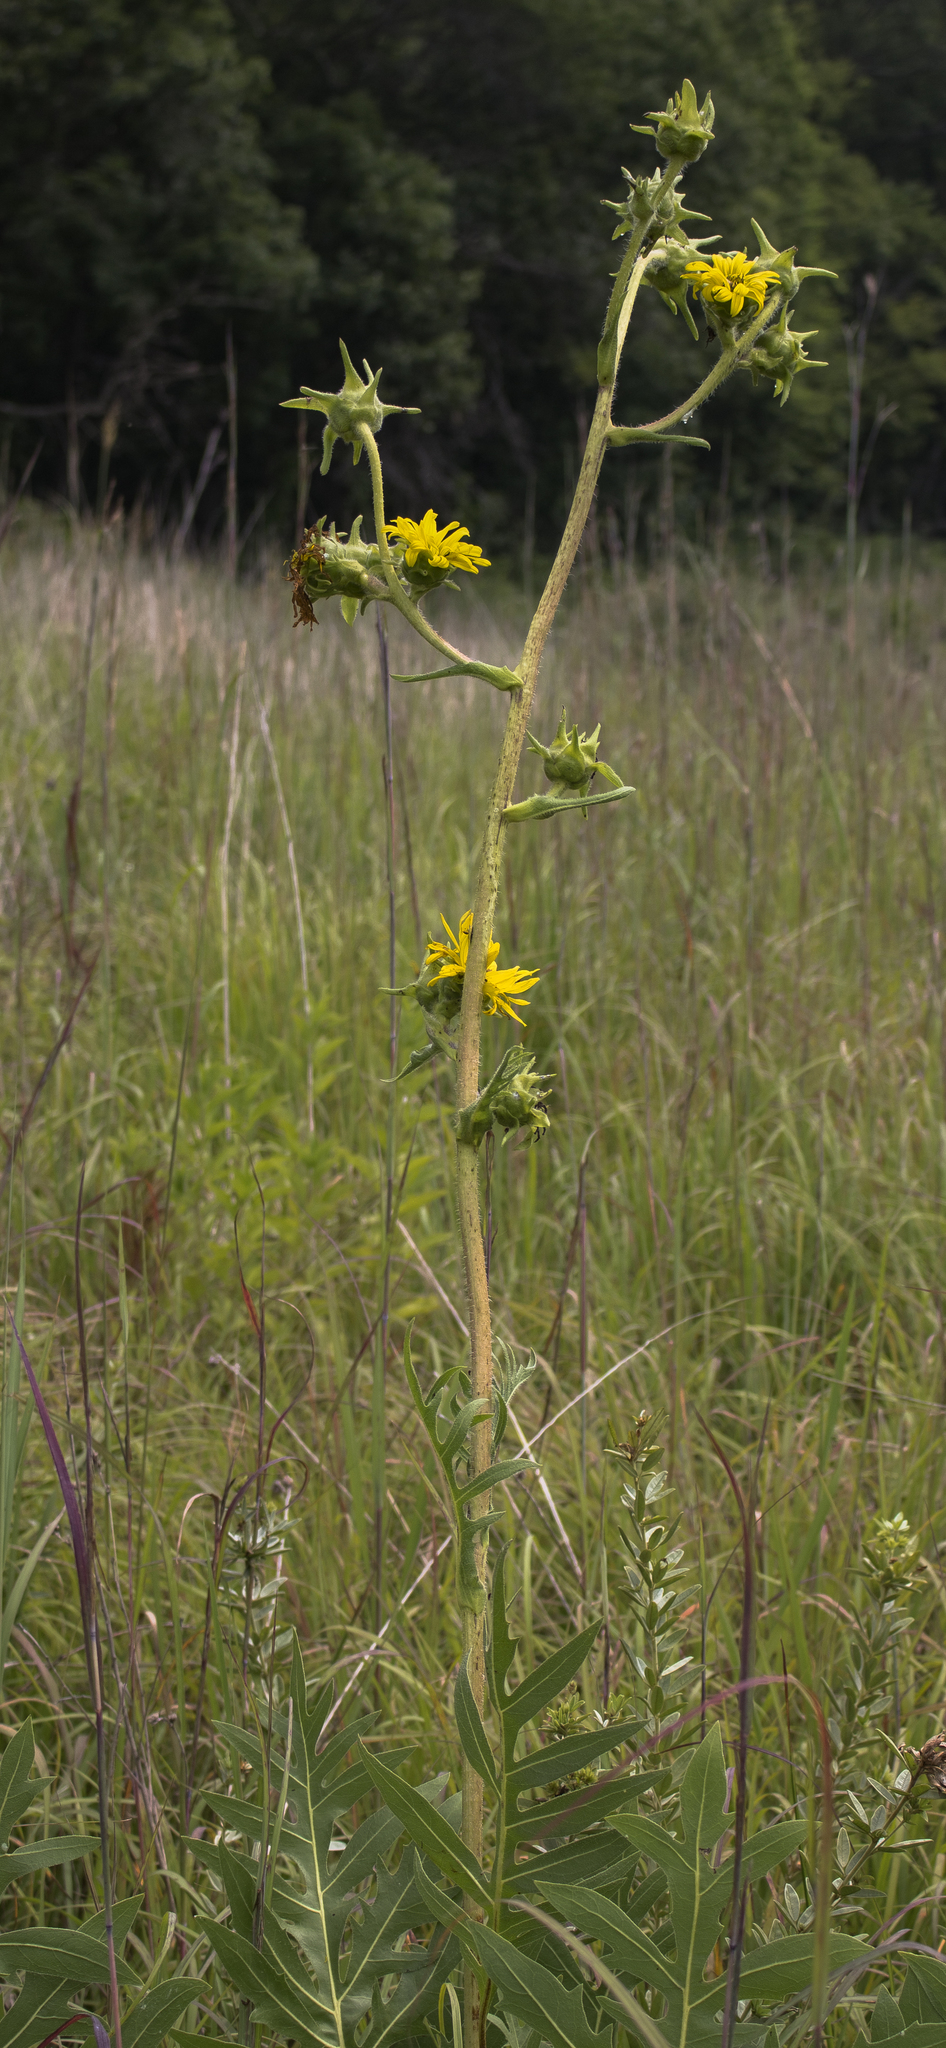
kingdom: Plantae
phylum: Tracheophyta
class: Magnoliopsida
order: Asterales
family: Asteraceae
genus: Silphium
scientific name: Silphium laciniatum
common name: Polarplant
